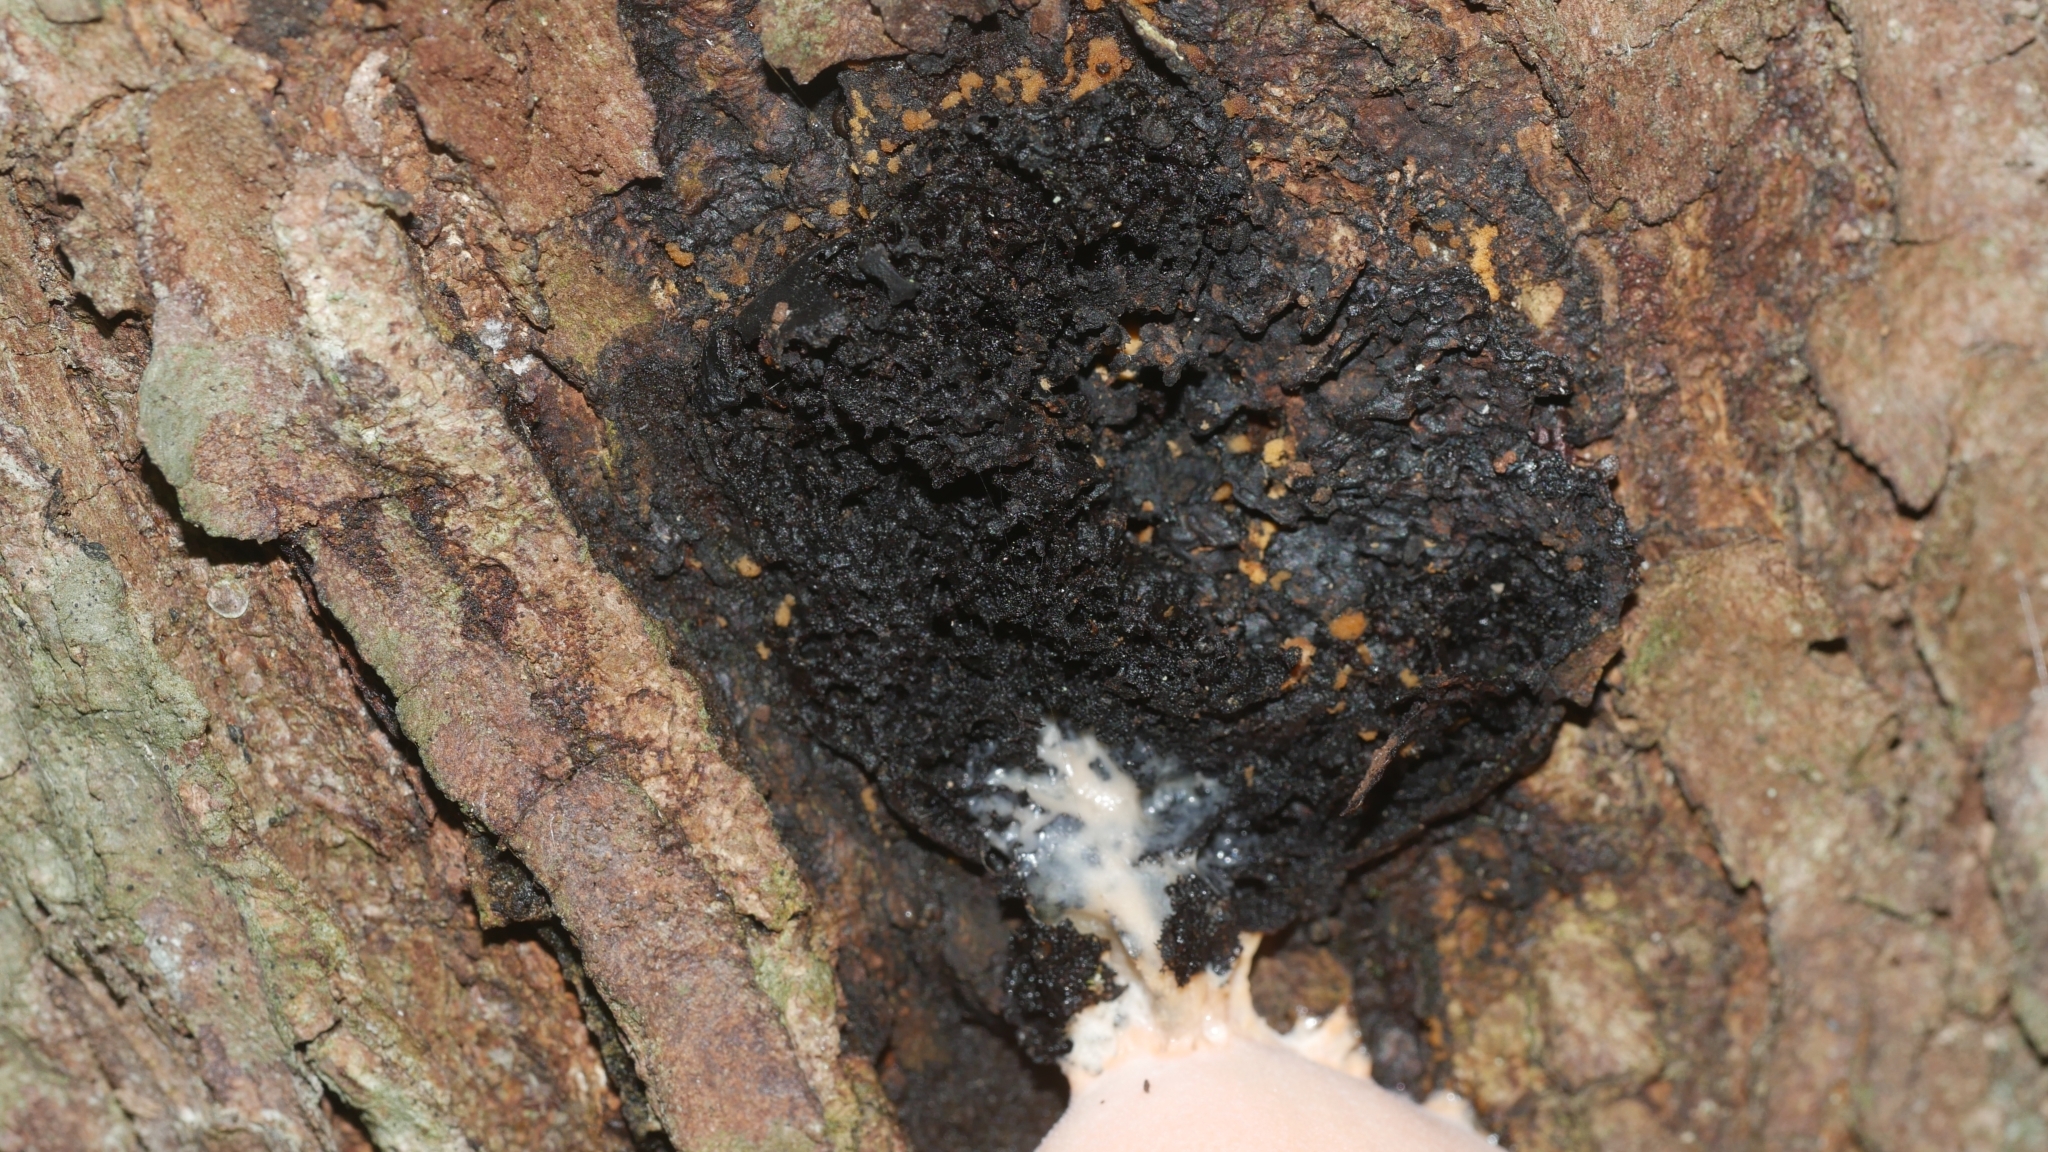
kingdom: Protozoa
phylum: Mycetozoa
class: Myxomycetes
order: Cribrariales
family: Tubiferaceae
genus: Lycogala
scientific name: Lycogala flavofuscum
